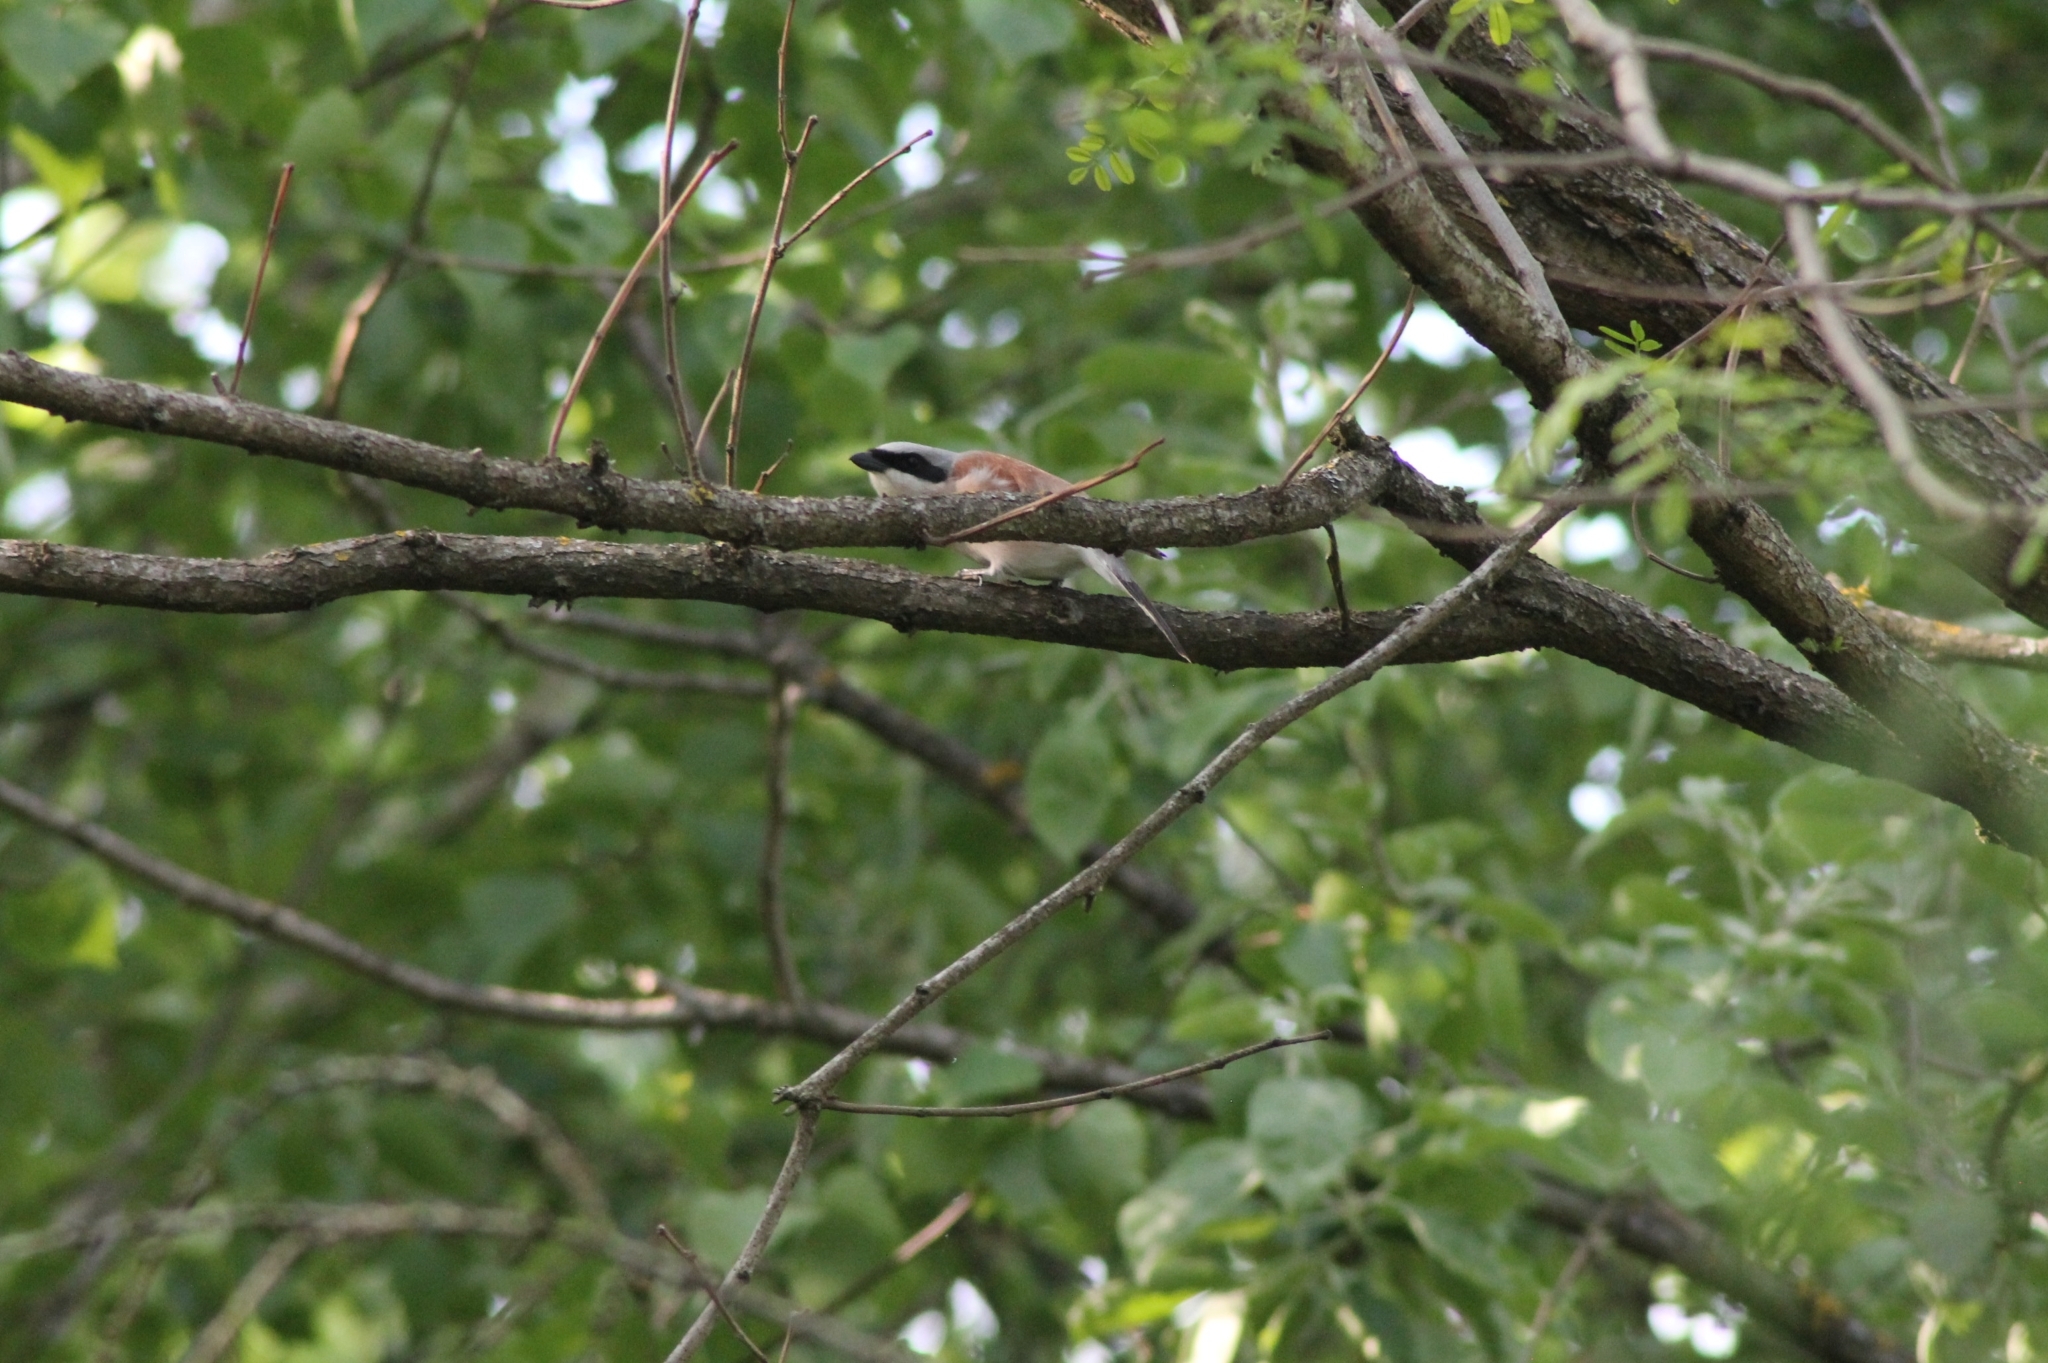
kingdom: Animalia
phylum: Chordata
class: Aves
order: Passeriformes
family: Laniidae
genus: Lanius
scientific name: Lanius collurio
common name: Red-backed shrike
